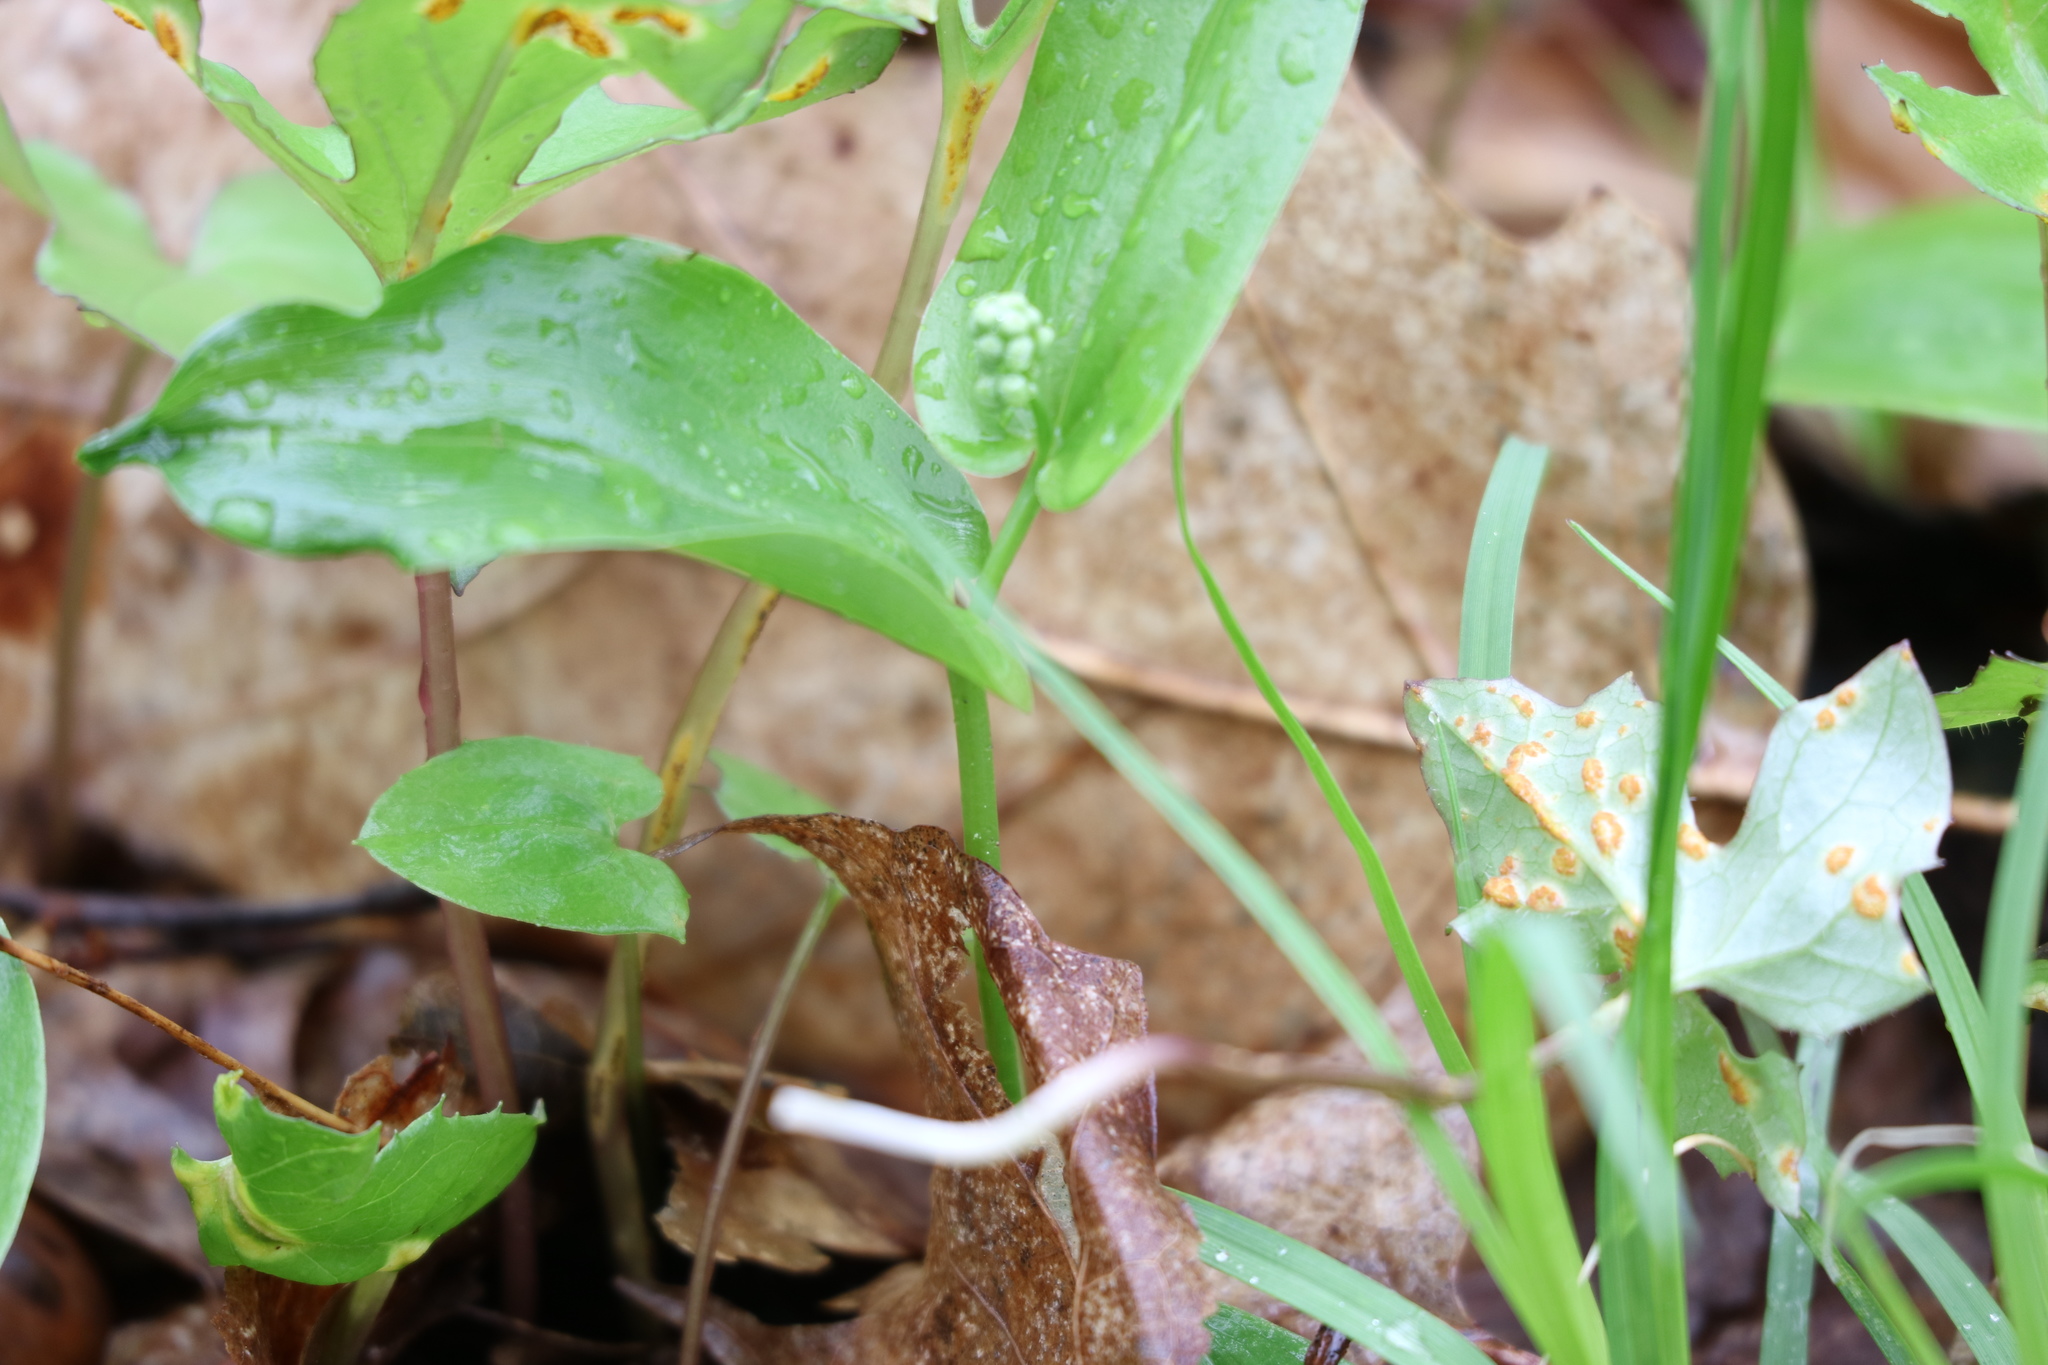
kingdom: Fungi
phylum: Basidiomycota
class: Pucciniomycetes
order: Pucciniales
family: Pucciniaceae
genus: Puccinia
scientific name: Puccinia orbicula
